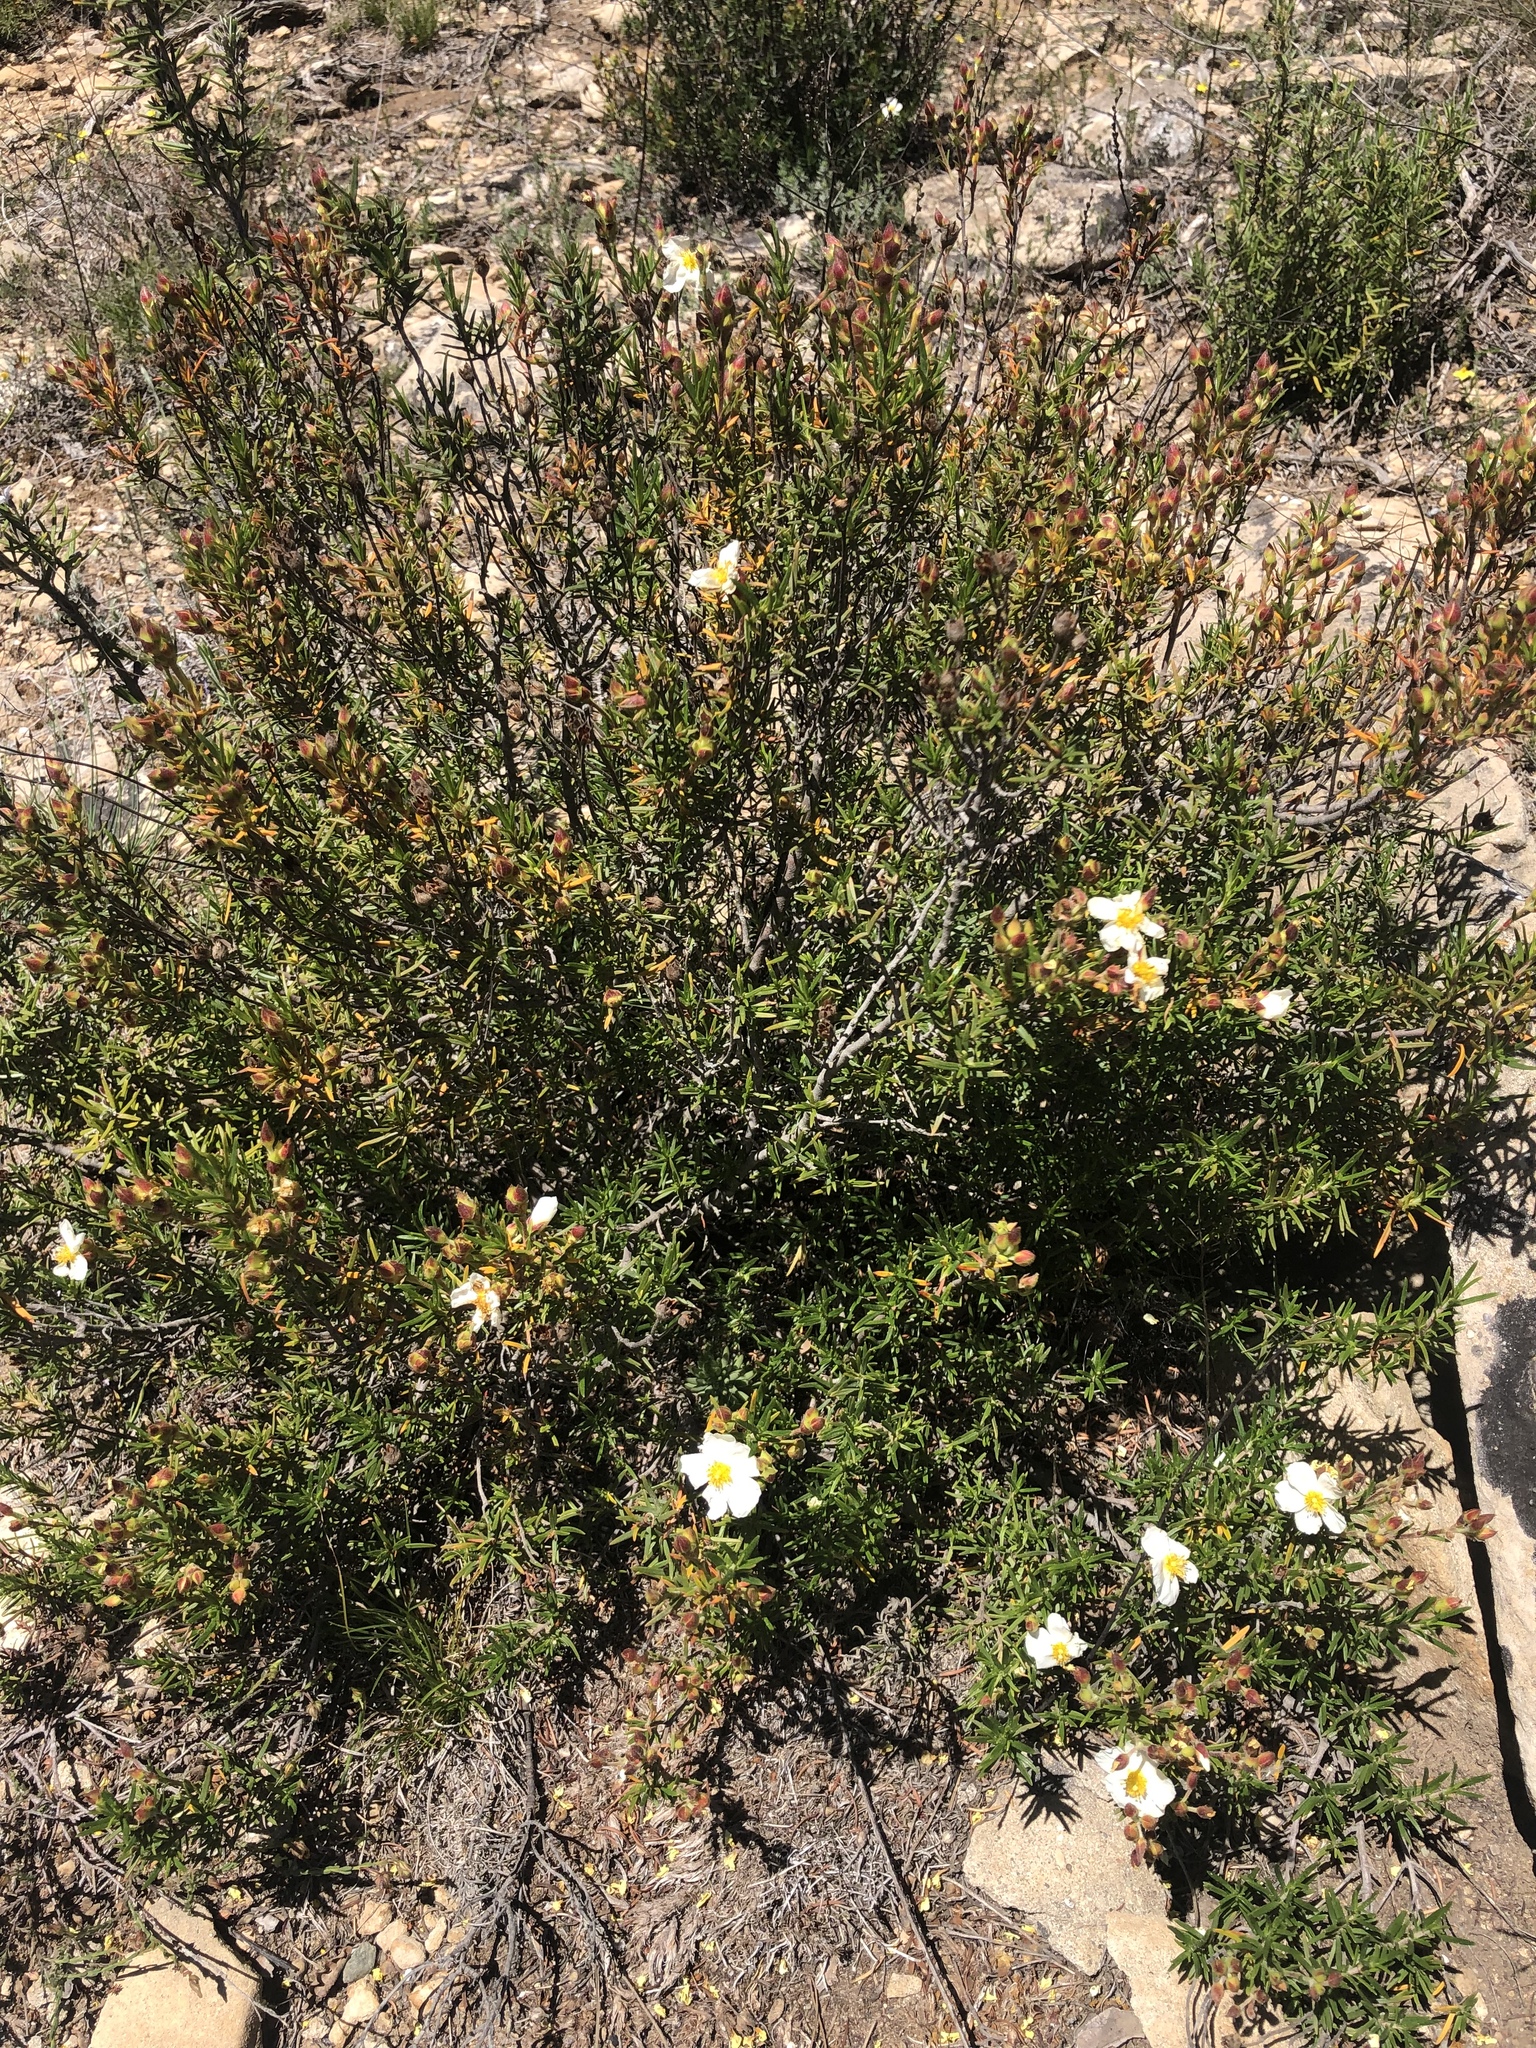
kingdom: Plantae
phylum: Tracheophyta
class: Magnoliopsida
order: Malvales
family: Cistaceae
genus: Cistus
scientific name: Cistus clusii
